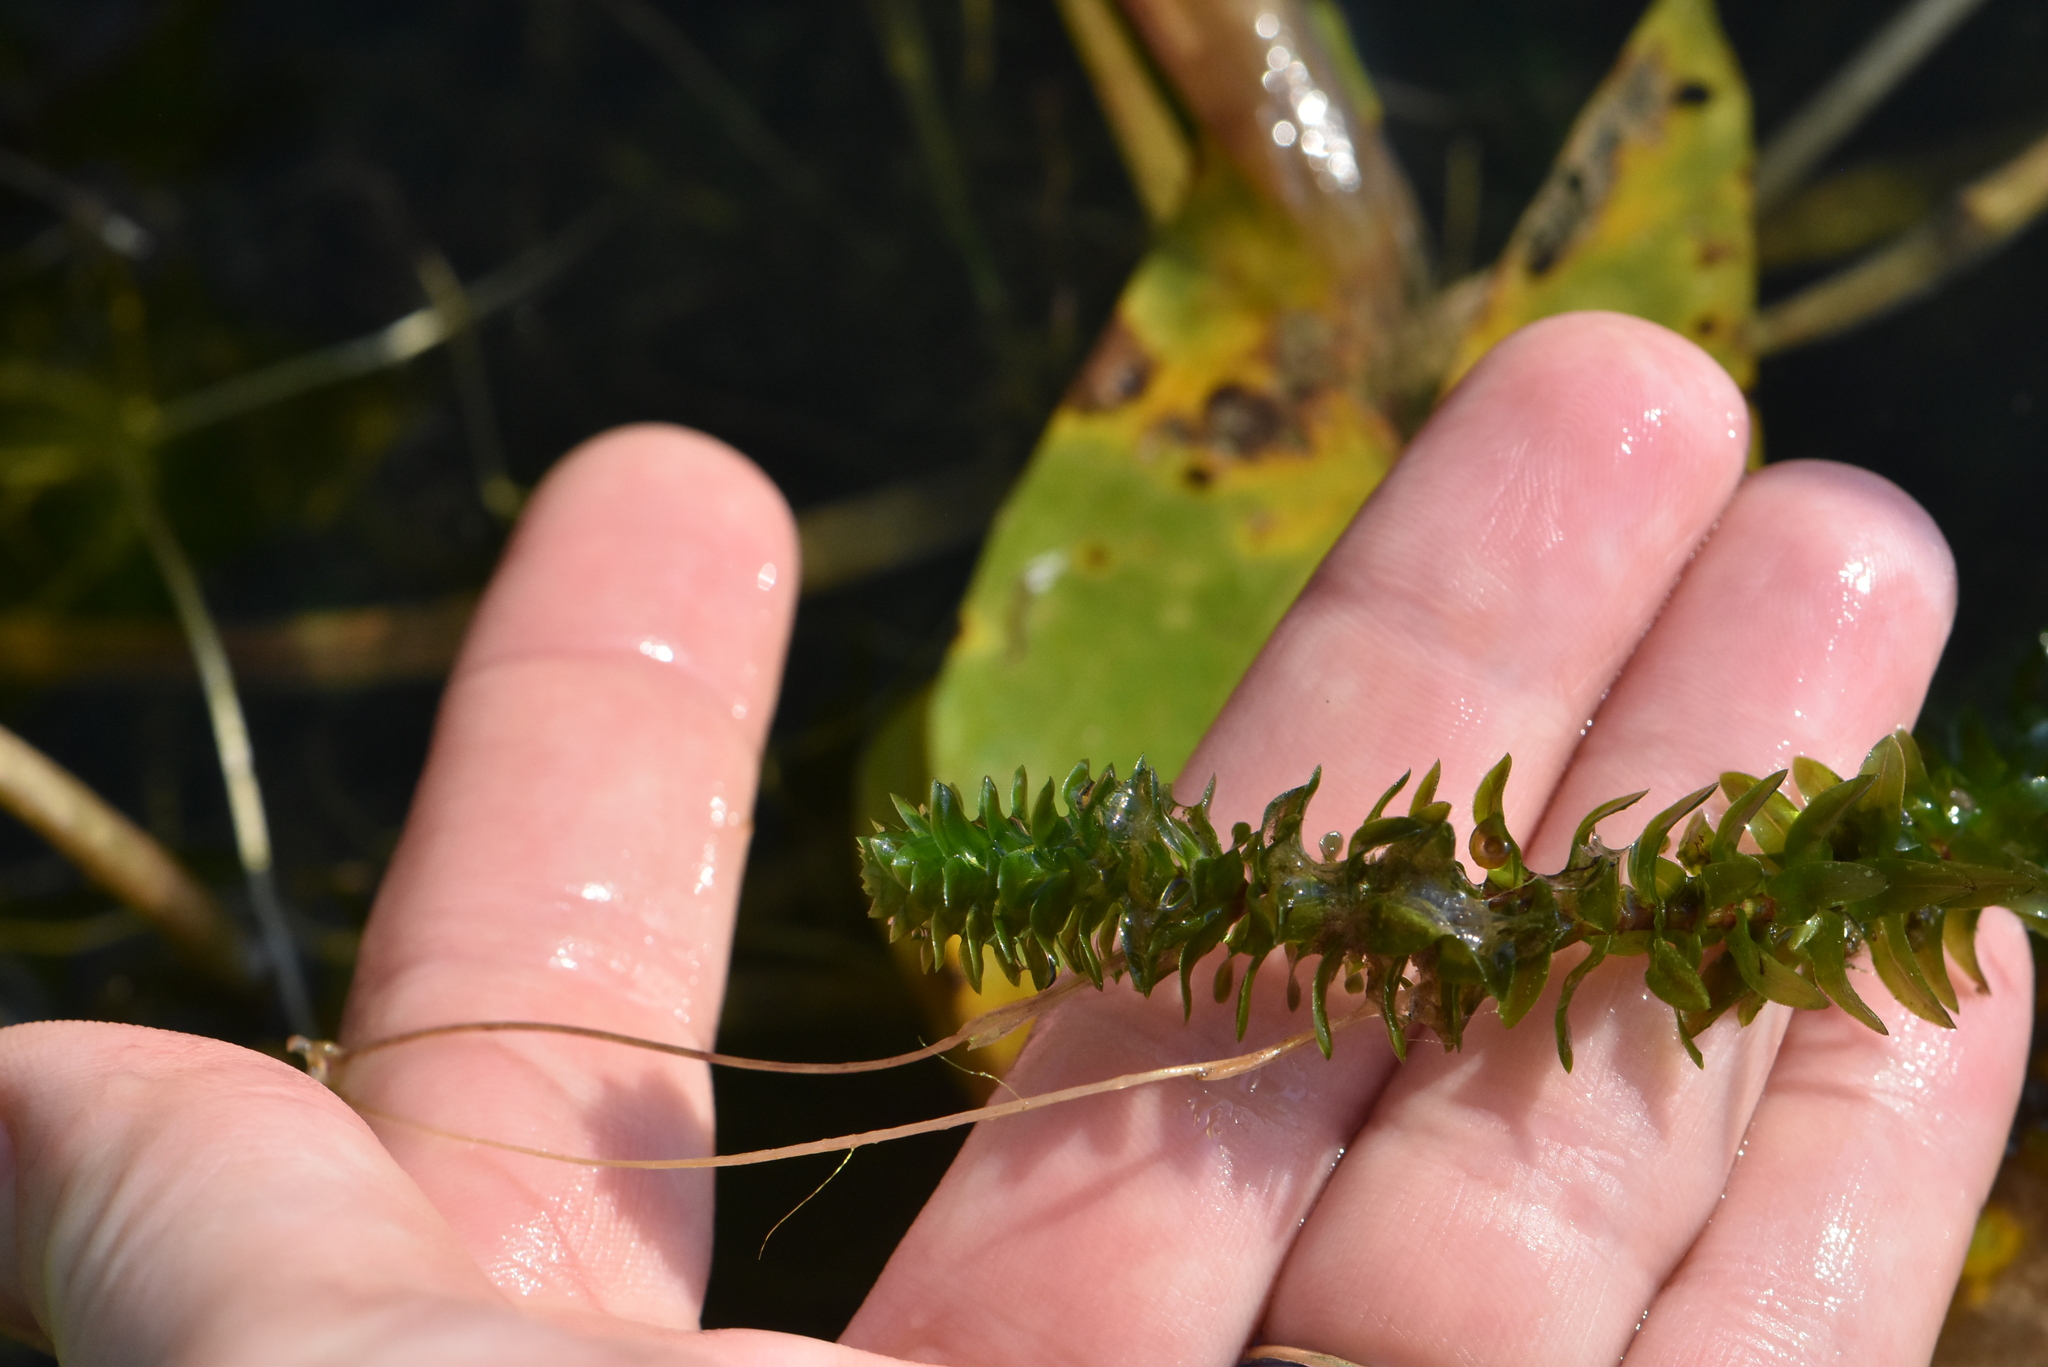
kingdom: Plantae
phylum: Tracheophyta
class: Liliopsida
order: Alismatales
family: Hydrocharitaceae
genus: Elodea
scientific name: Elodea canadensis
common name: Canadian waterweed
